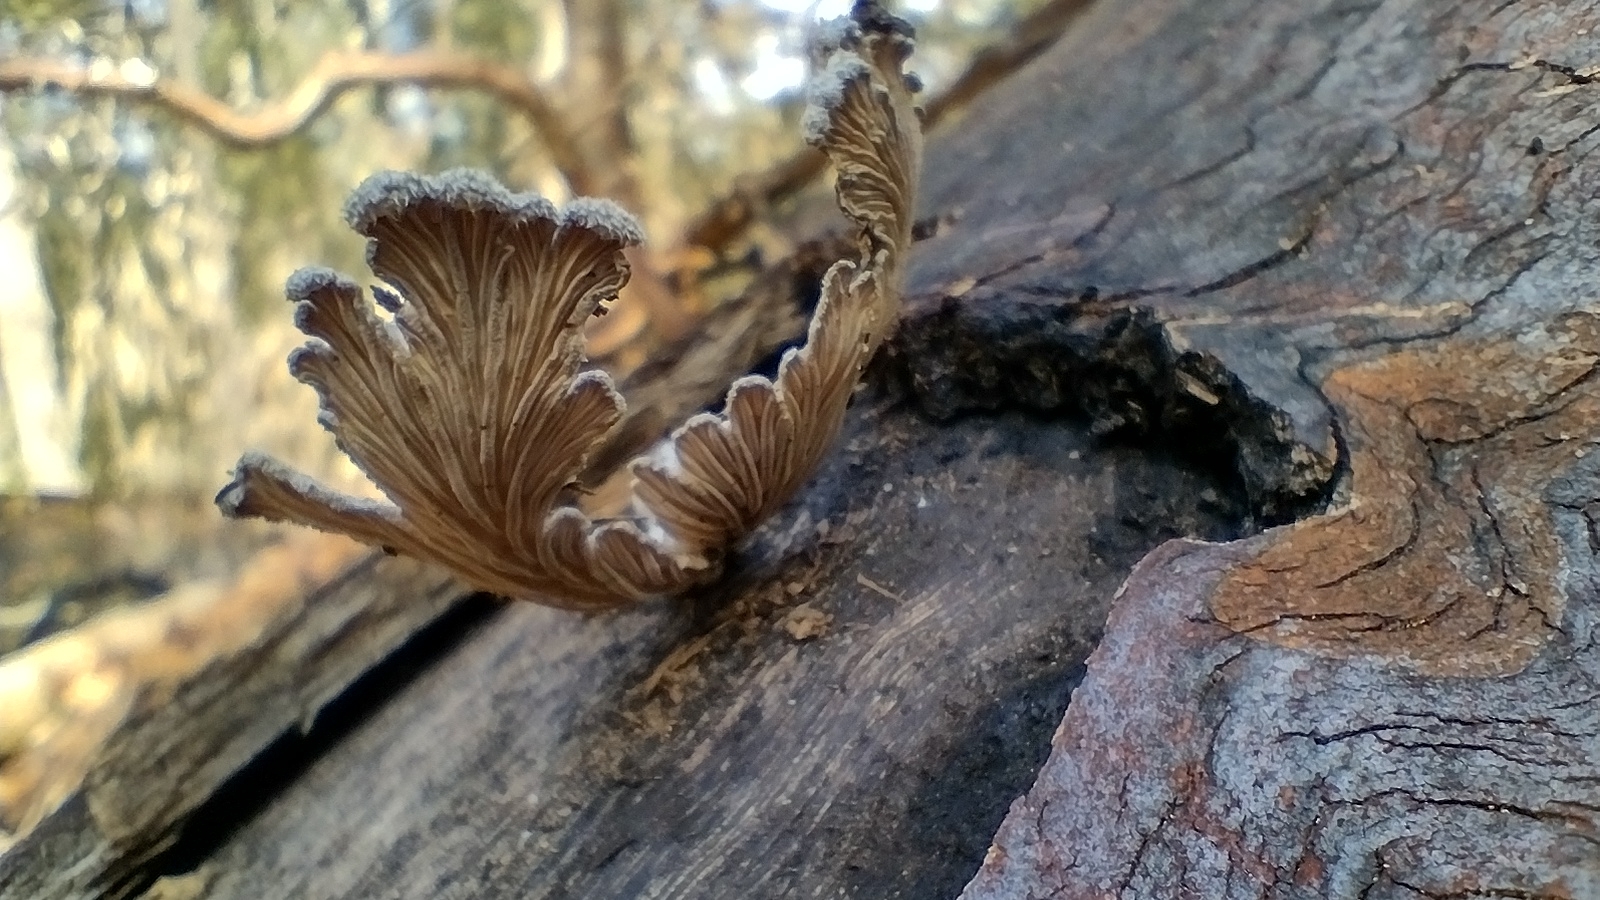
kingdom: Fungi
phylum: Basidiomycota
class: Agaricomycetes
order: Agaricales
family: Schizophyllaceae
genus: Schizophyllum
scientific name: Schizophyllum commune
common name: Common porecrust
